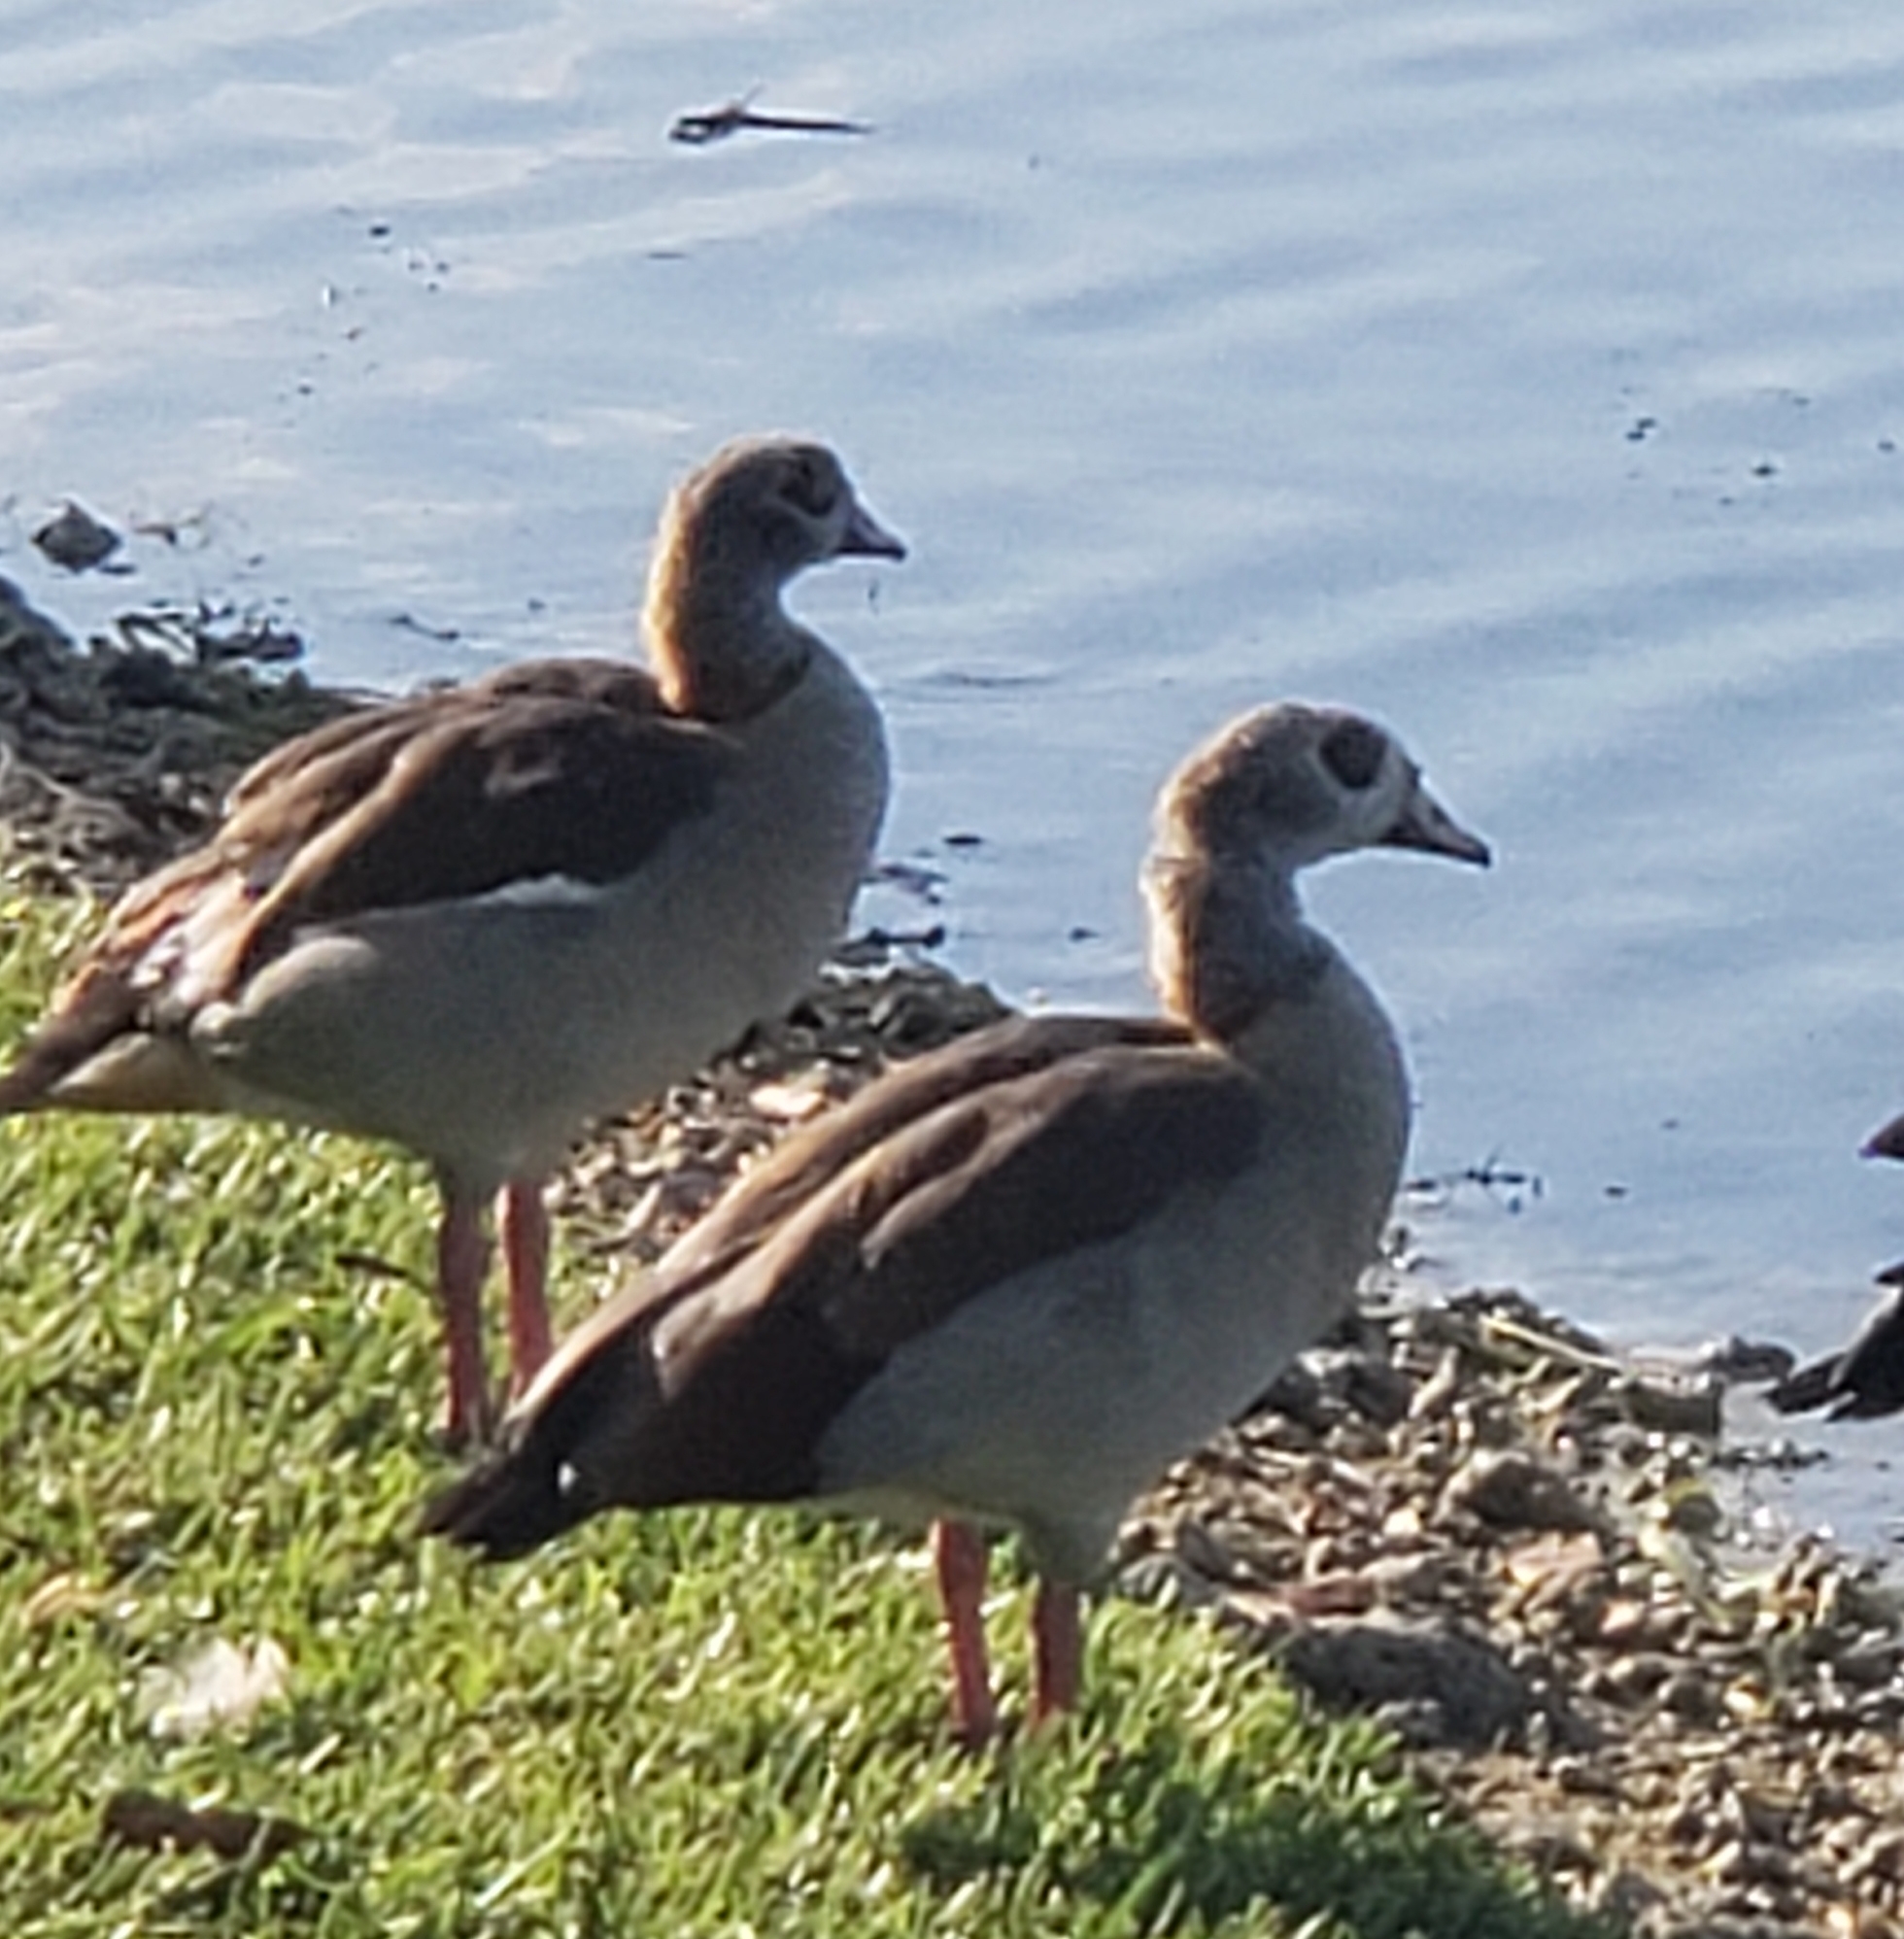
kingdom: Animalia
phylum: Chordata
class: Aves
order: Anseriformes
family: Anatidae
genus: Alopochen
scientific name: Alopochen aegyptiaca
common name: Egyptian goose
